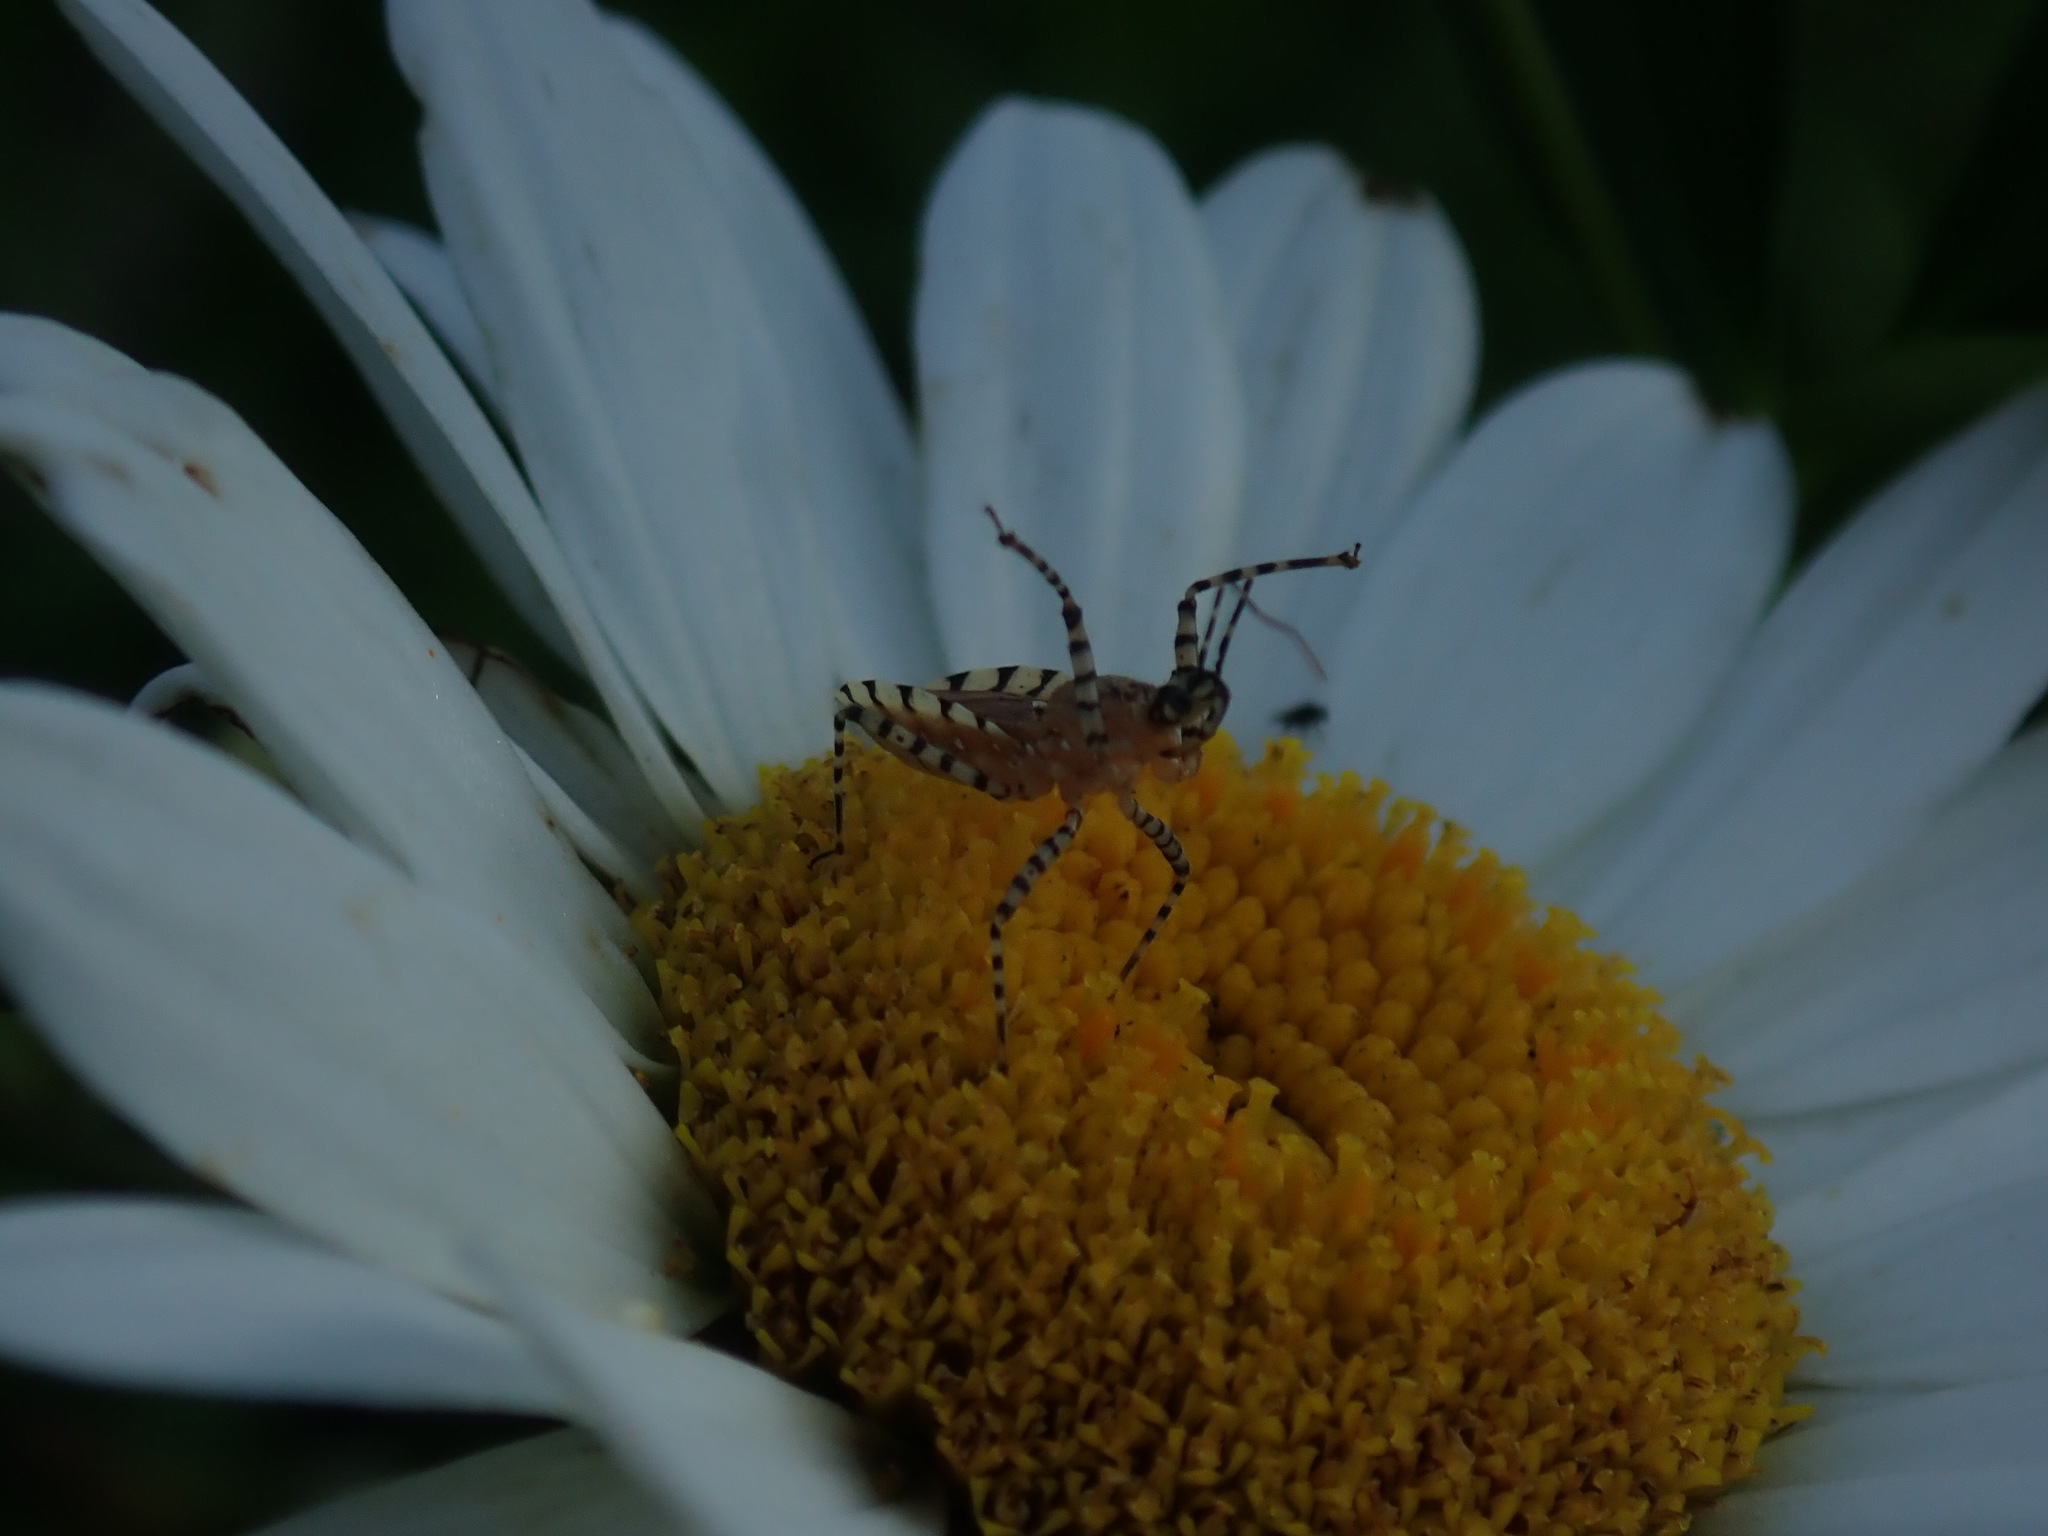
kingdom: Animalia
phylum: Arthropoda
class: Insecta
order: Hemiptera
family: Reduviidae
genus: Pselliopus
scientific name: Pselliopus cinctus
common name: Ringed assassin bug
